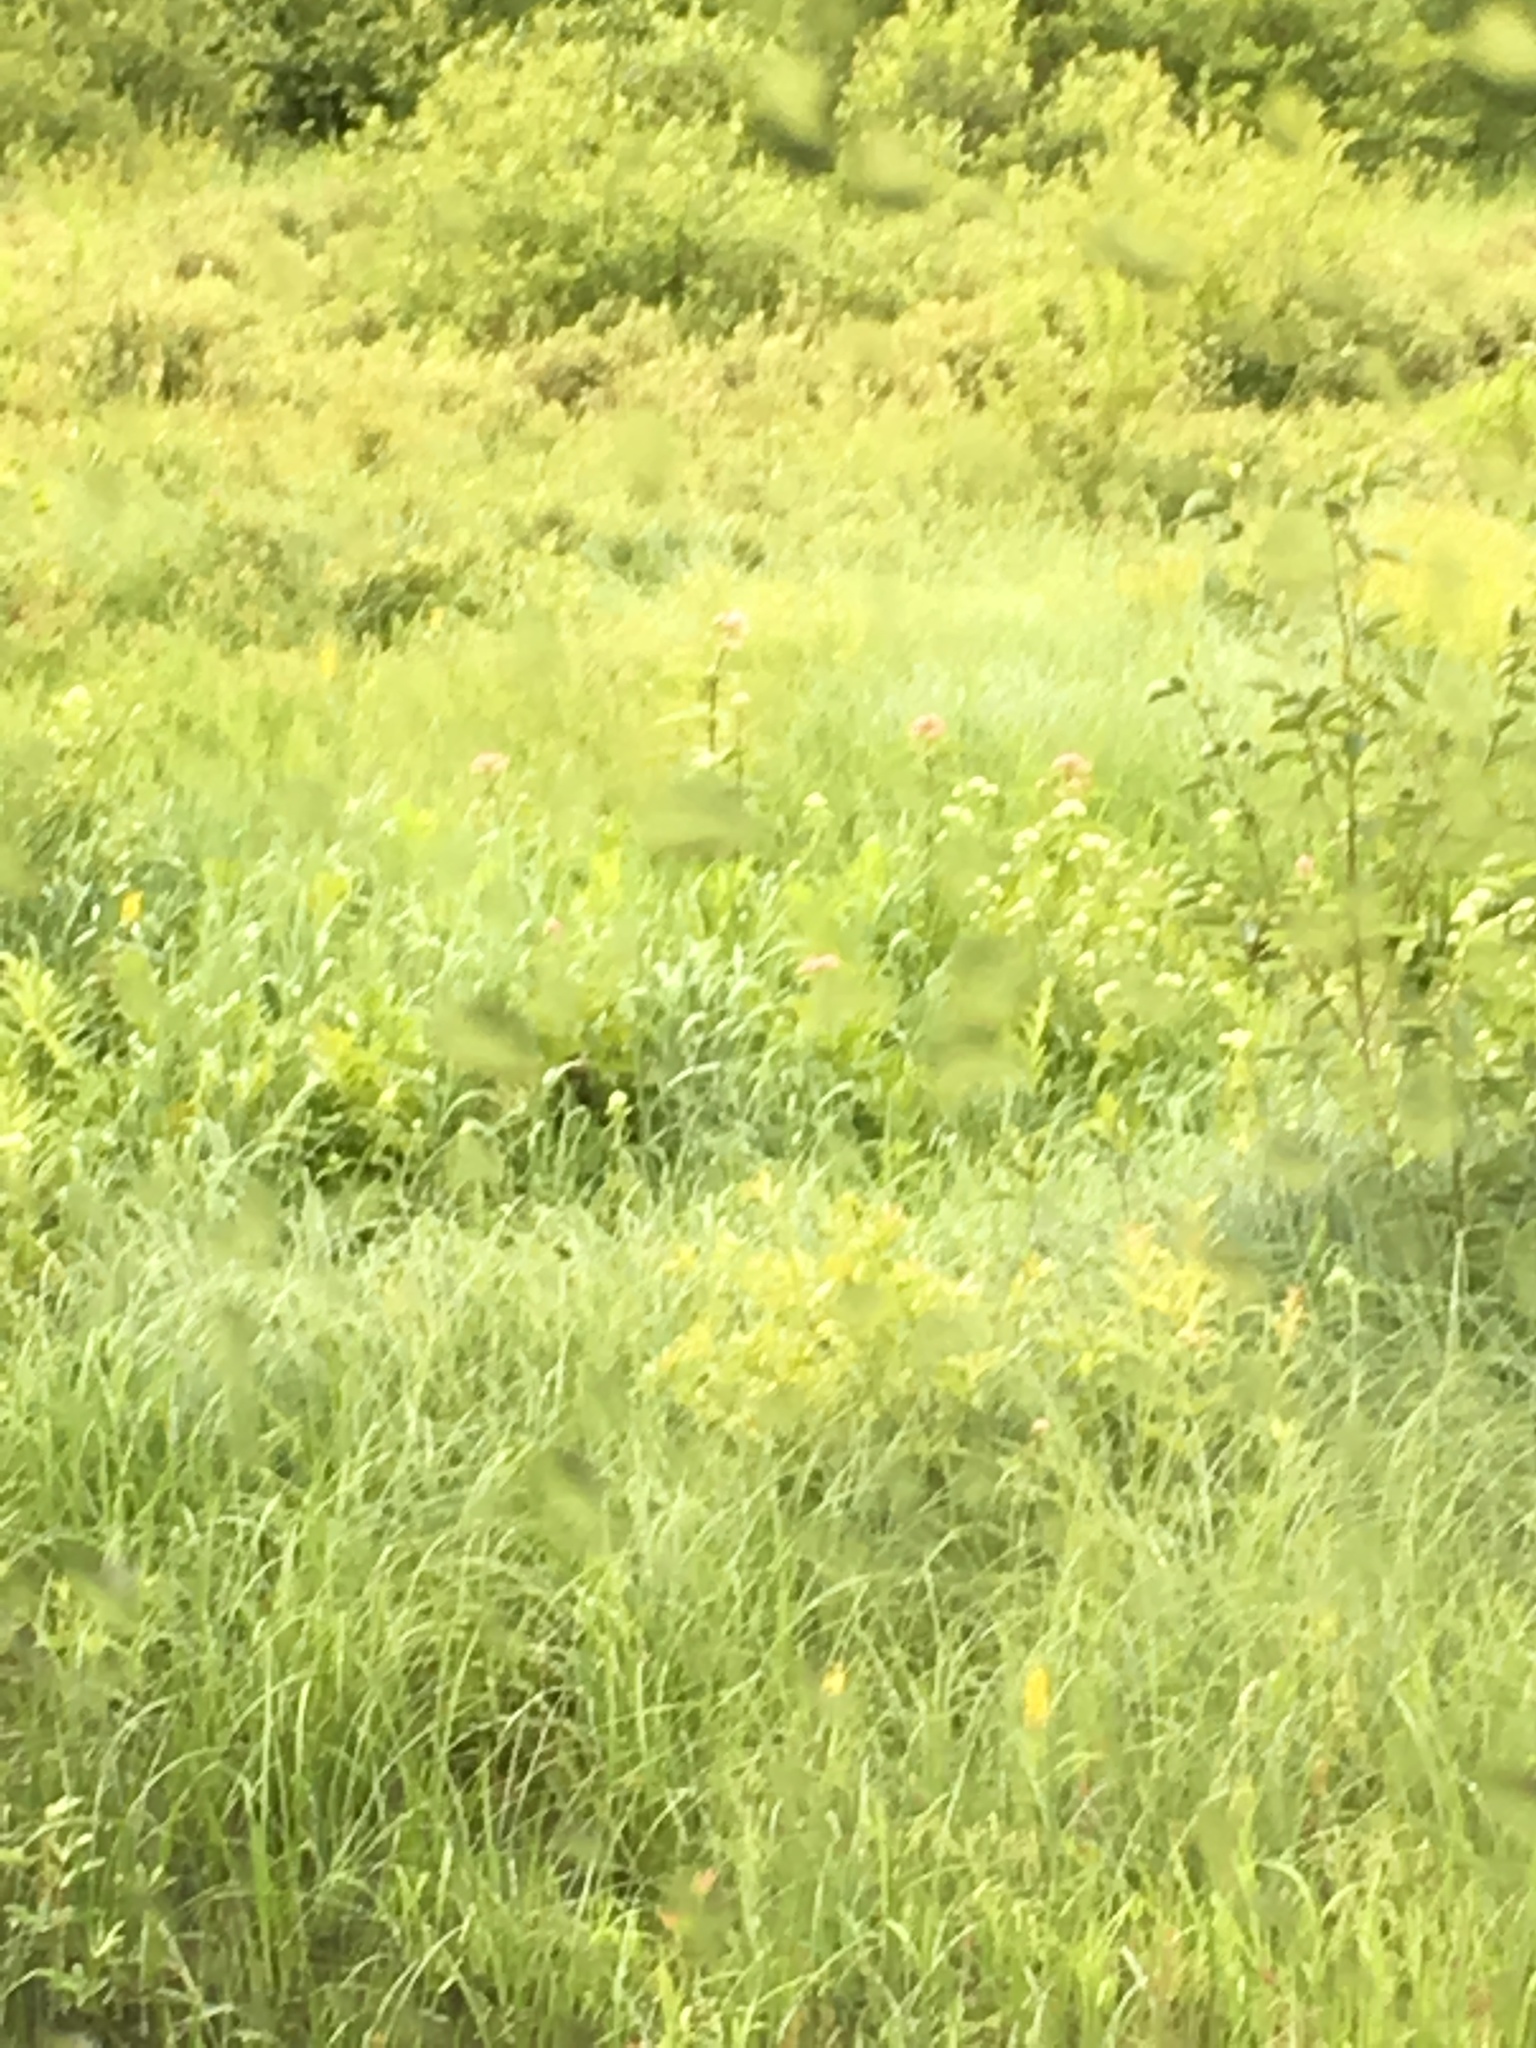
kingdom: Plantae
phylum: Tracheophyta
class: Magnoliopsida
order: Asterales
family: Asteraceae
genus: Eutrochium
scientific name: Eutrochium maculatum
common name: Spotted joe pye weed
